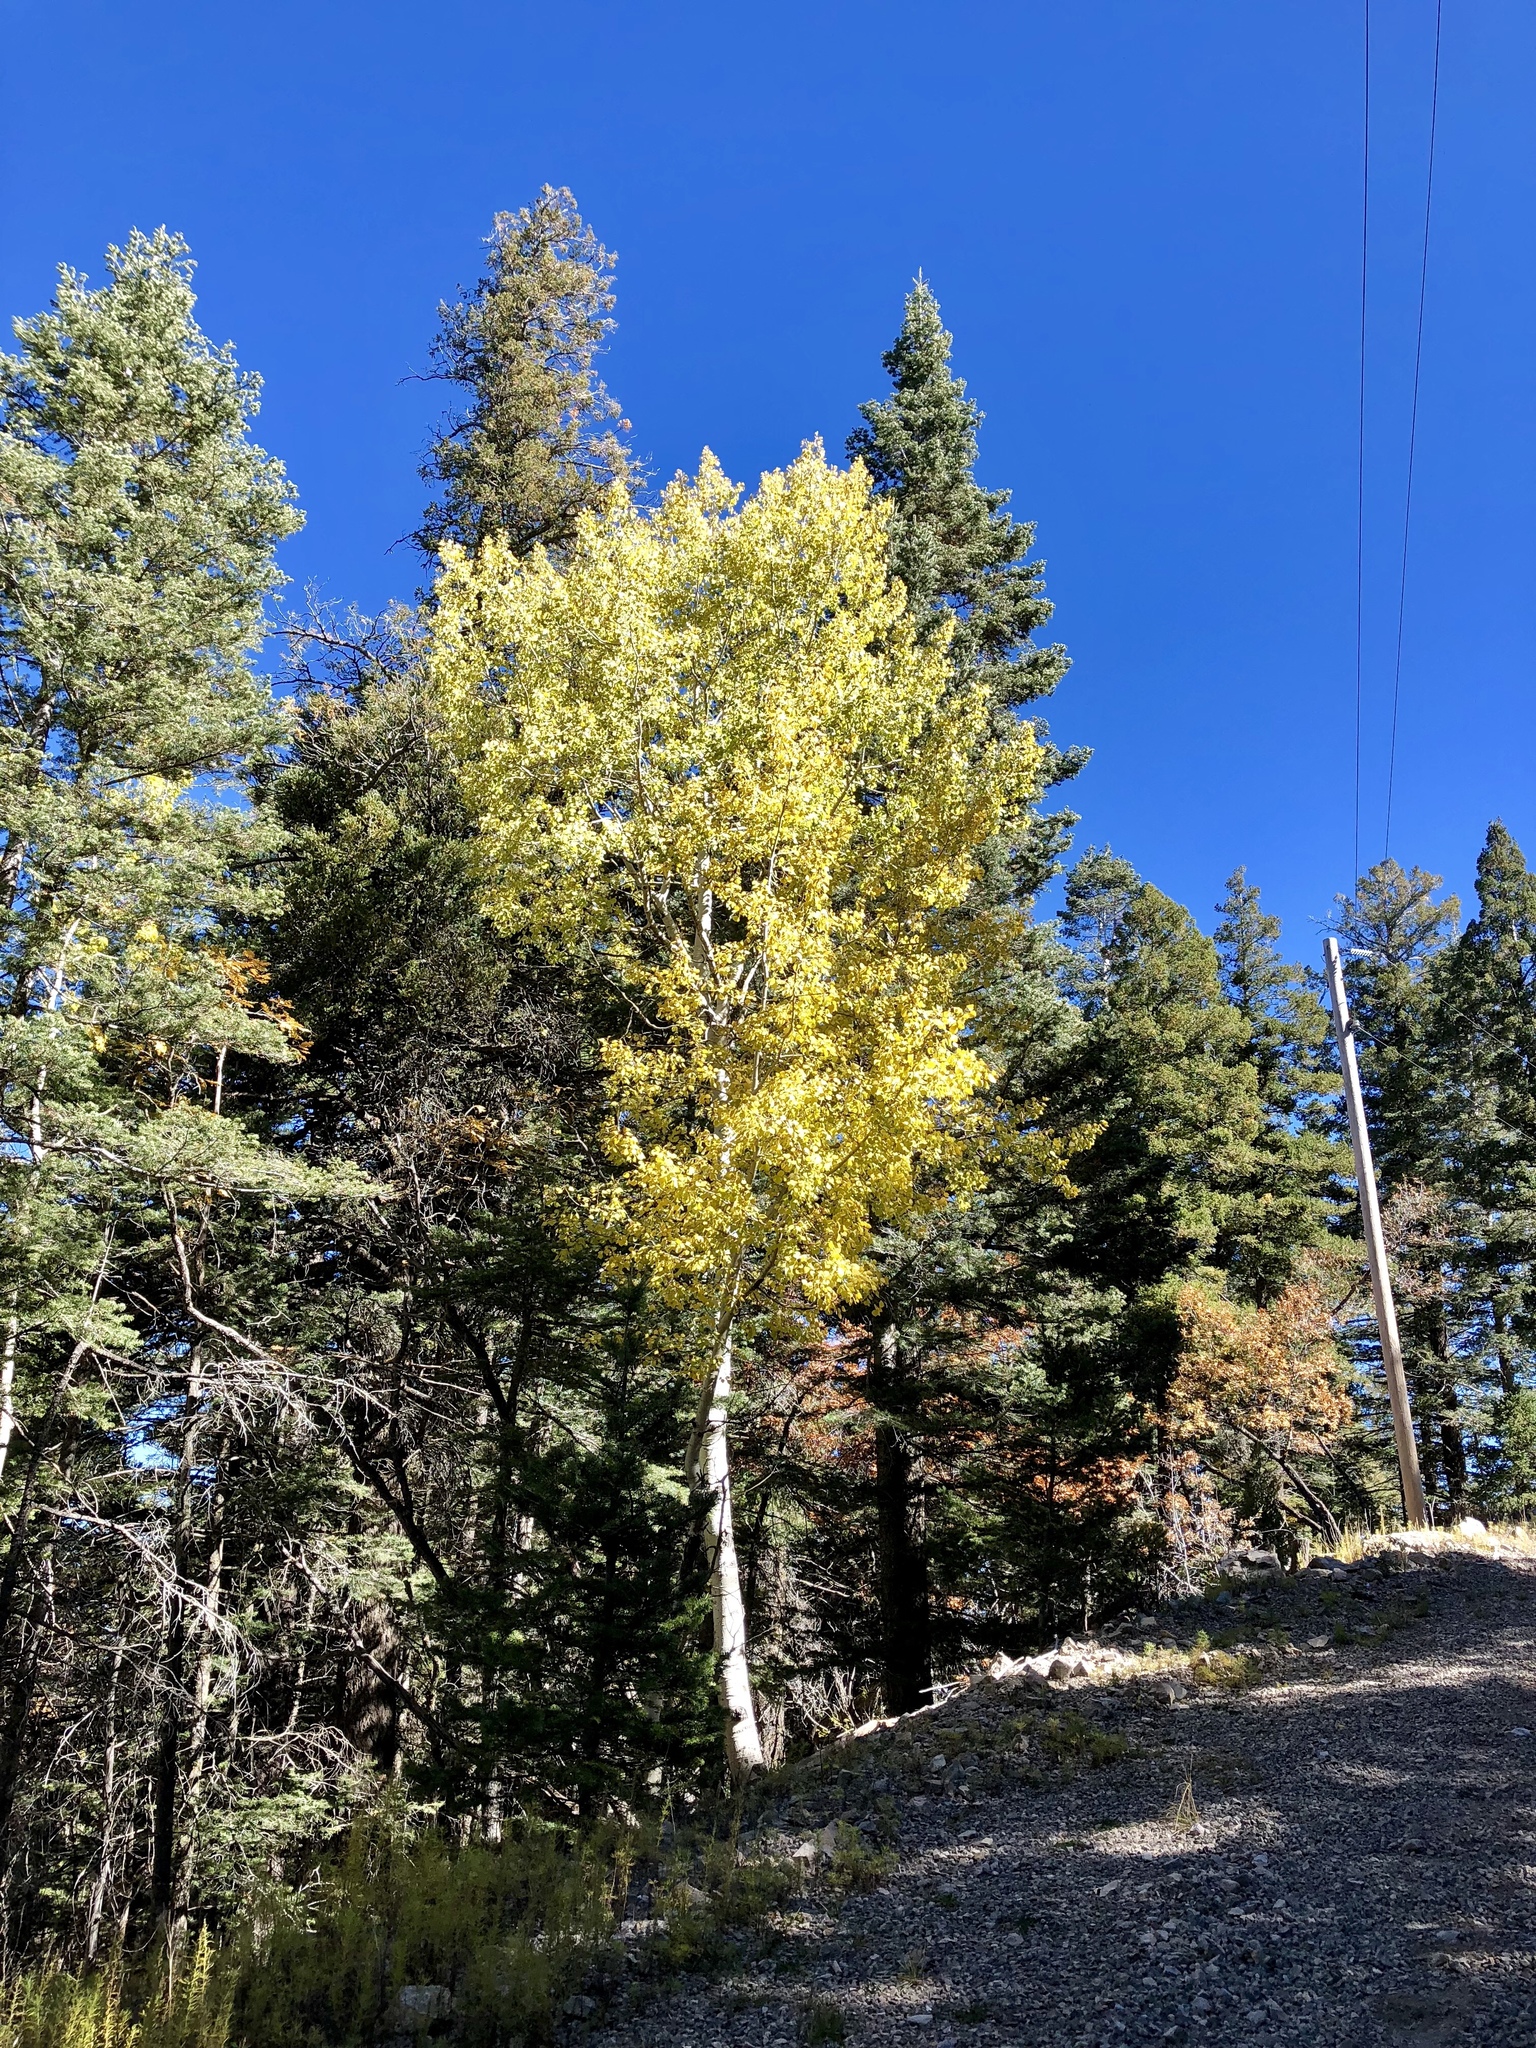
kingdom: Plantae
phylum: Tracheophyta
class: Magnoliopsida
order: Malpighiales
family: Salicaceae
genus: Populus
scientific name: Populus tremuloides
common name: Quaking aspen
